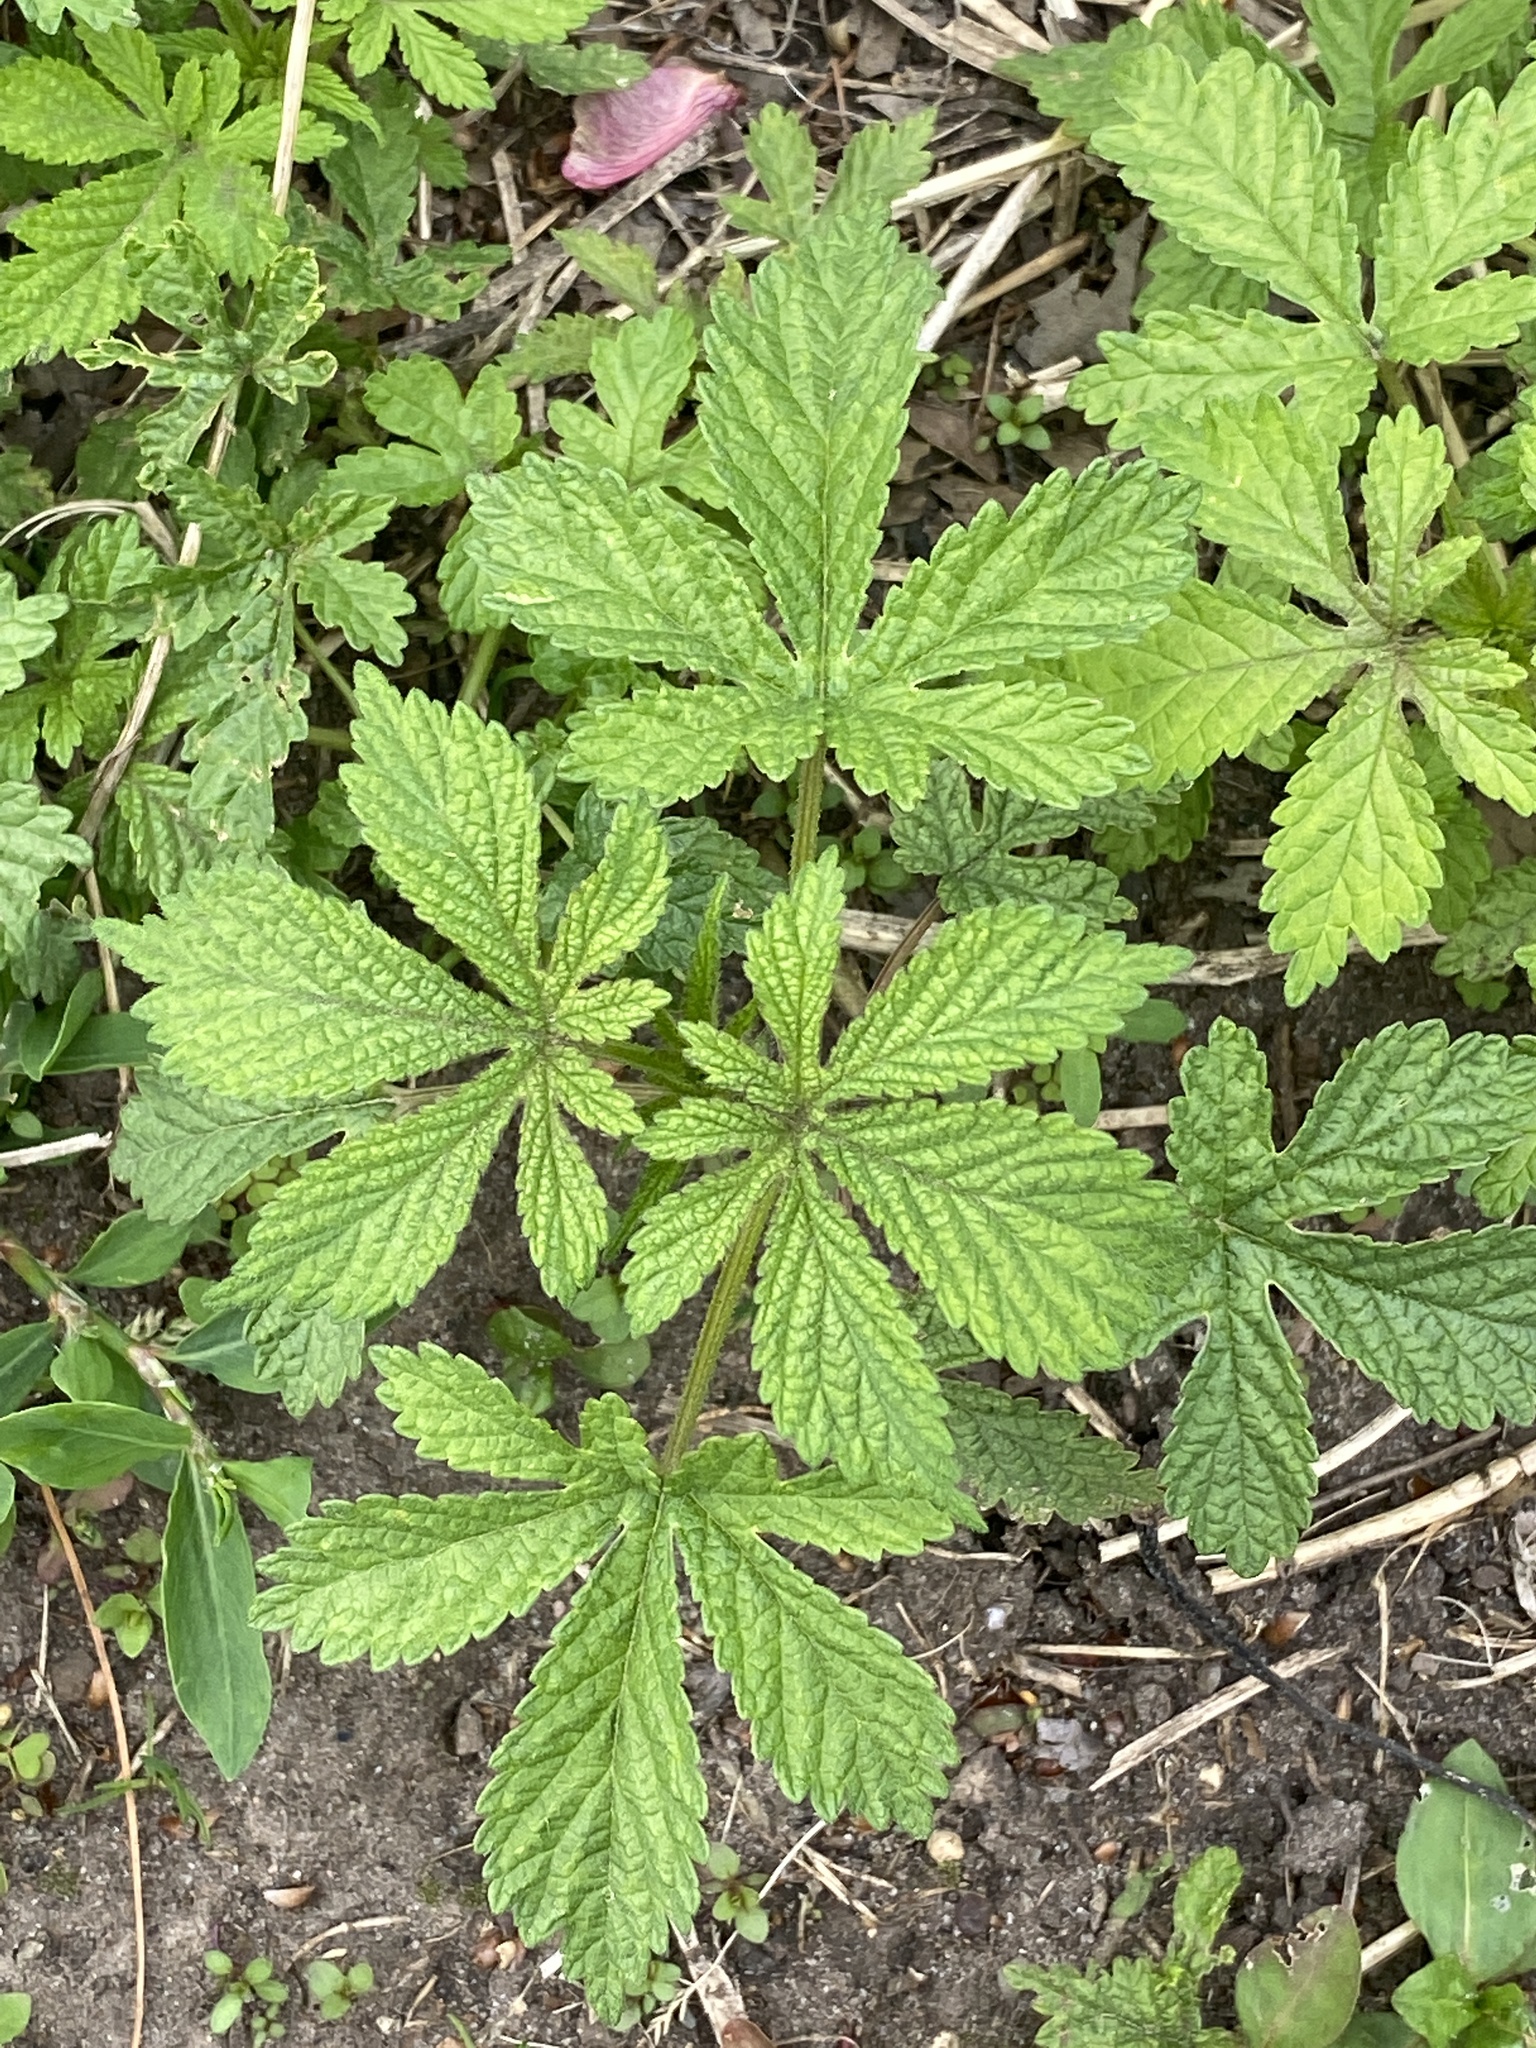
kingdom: Plantae
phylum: Tracheophyta
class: Magnoliopsida
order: Rosales
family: Cannabaceae
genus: Humulus
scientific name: Humulus scandens
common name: Japanese hop
